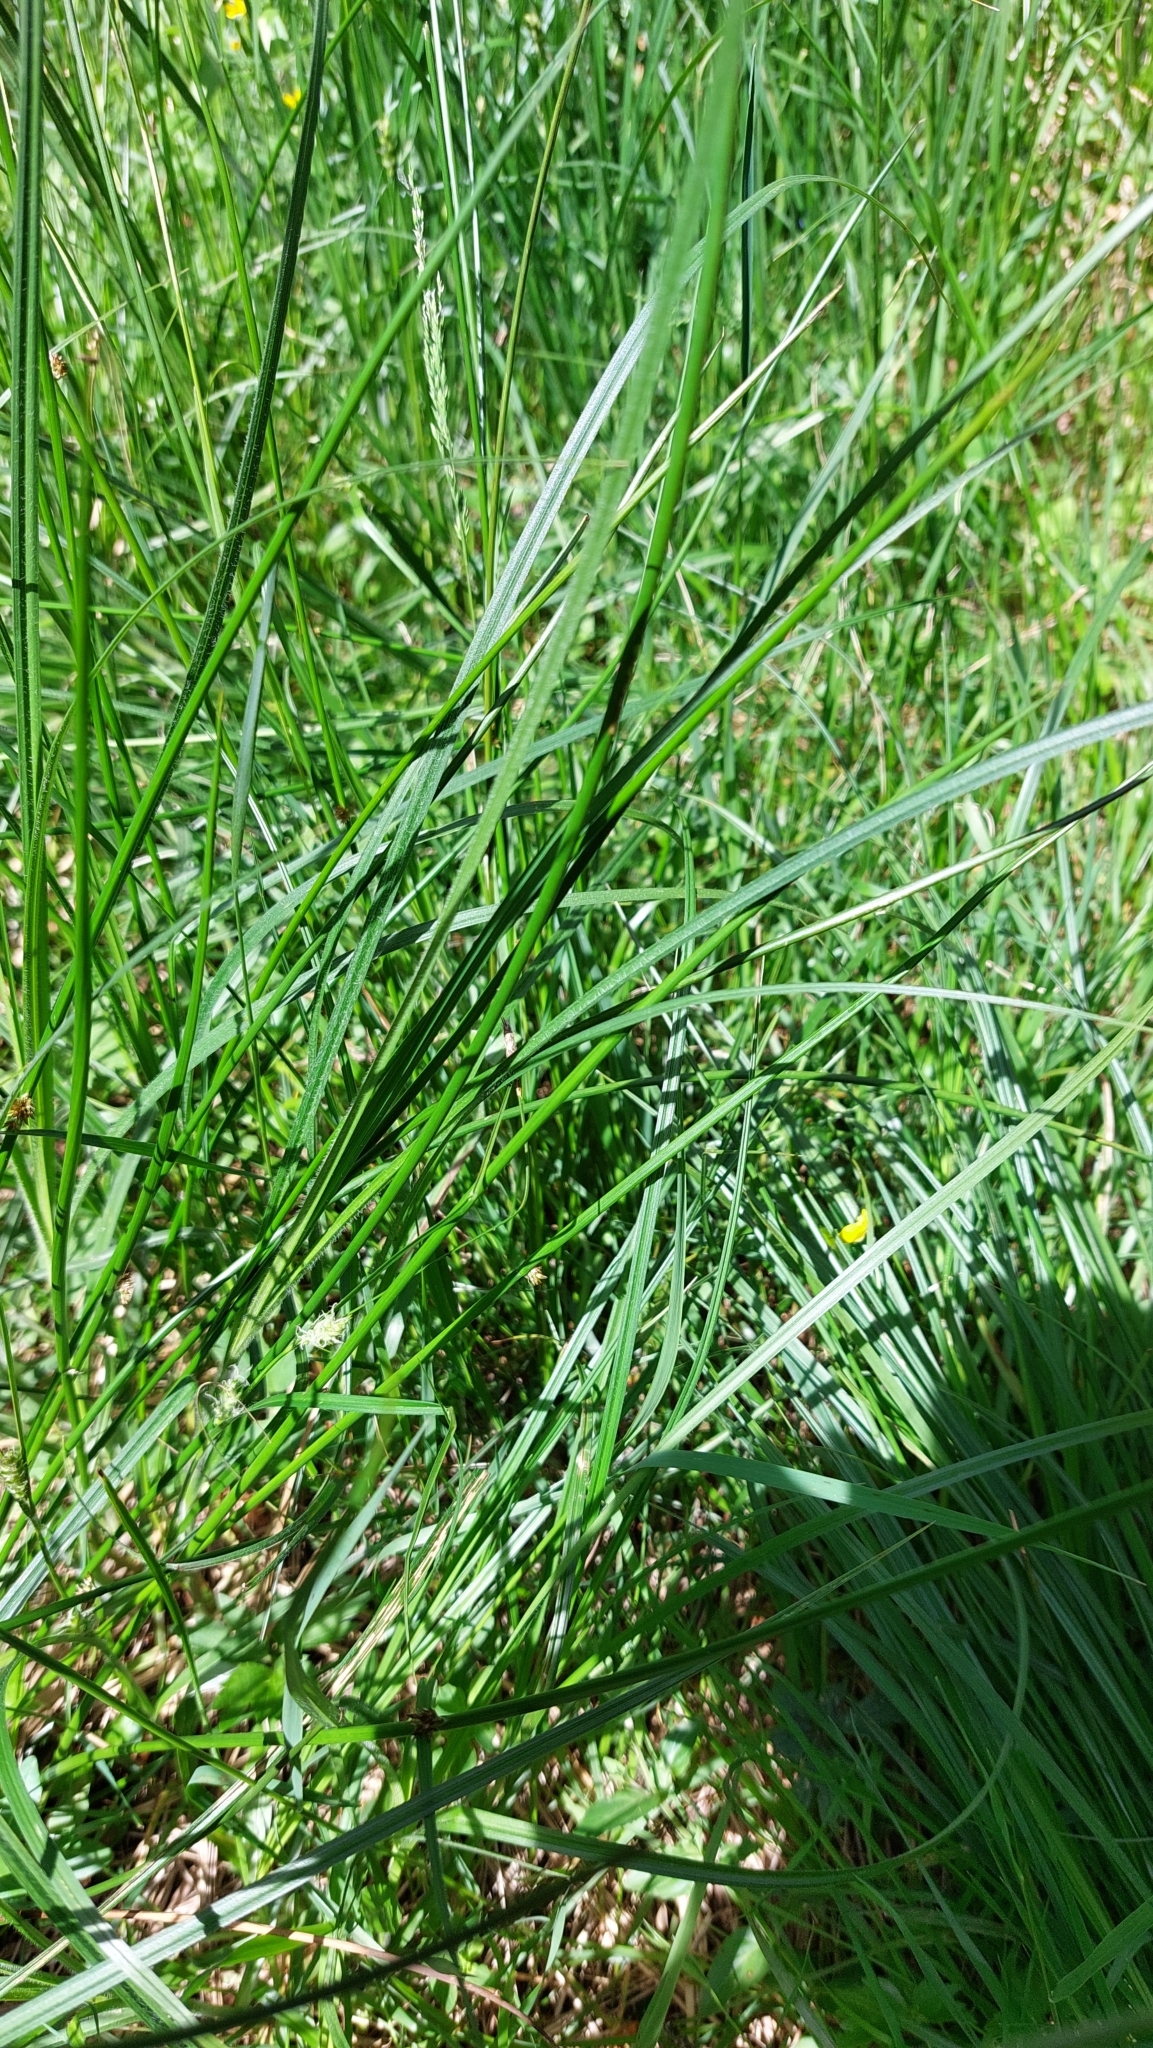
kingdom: Plantae
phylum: Tracheophyta
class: Liliopsida
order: Poales
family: Cyperaceae
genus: Carex
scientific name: Carex hirta
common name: Hairy sedge
